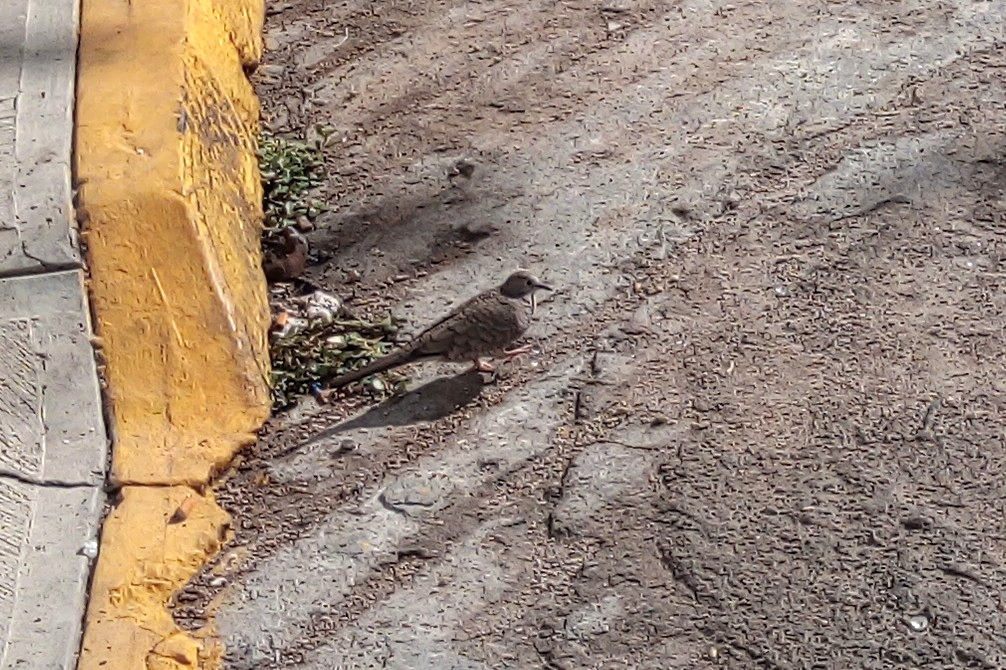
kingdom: Animalia
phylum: Chordata
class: Aves
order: Columbiformes
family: Columbidae
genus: Columbina
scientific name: Columbina inca
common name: Inca dove
